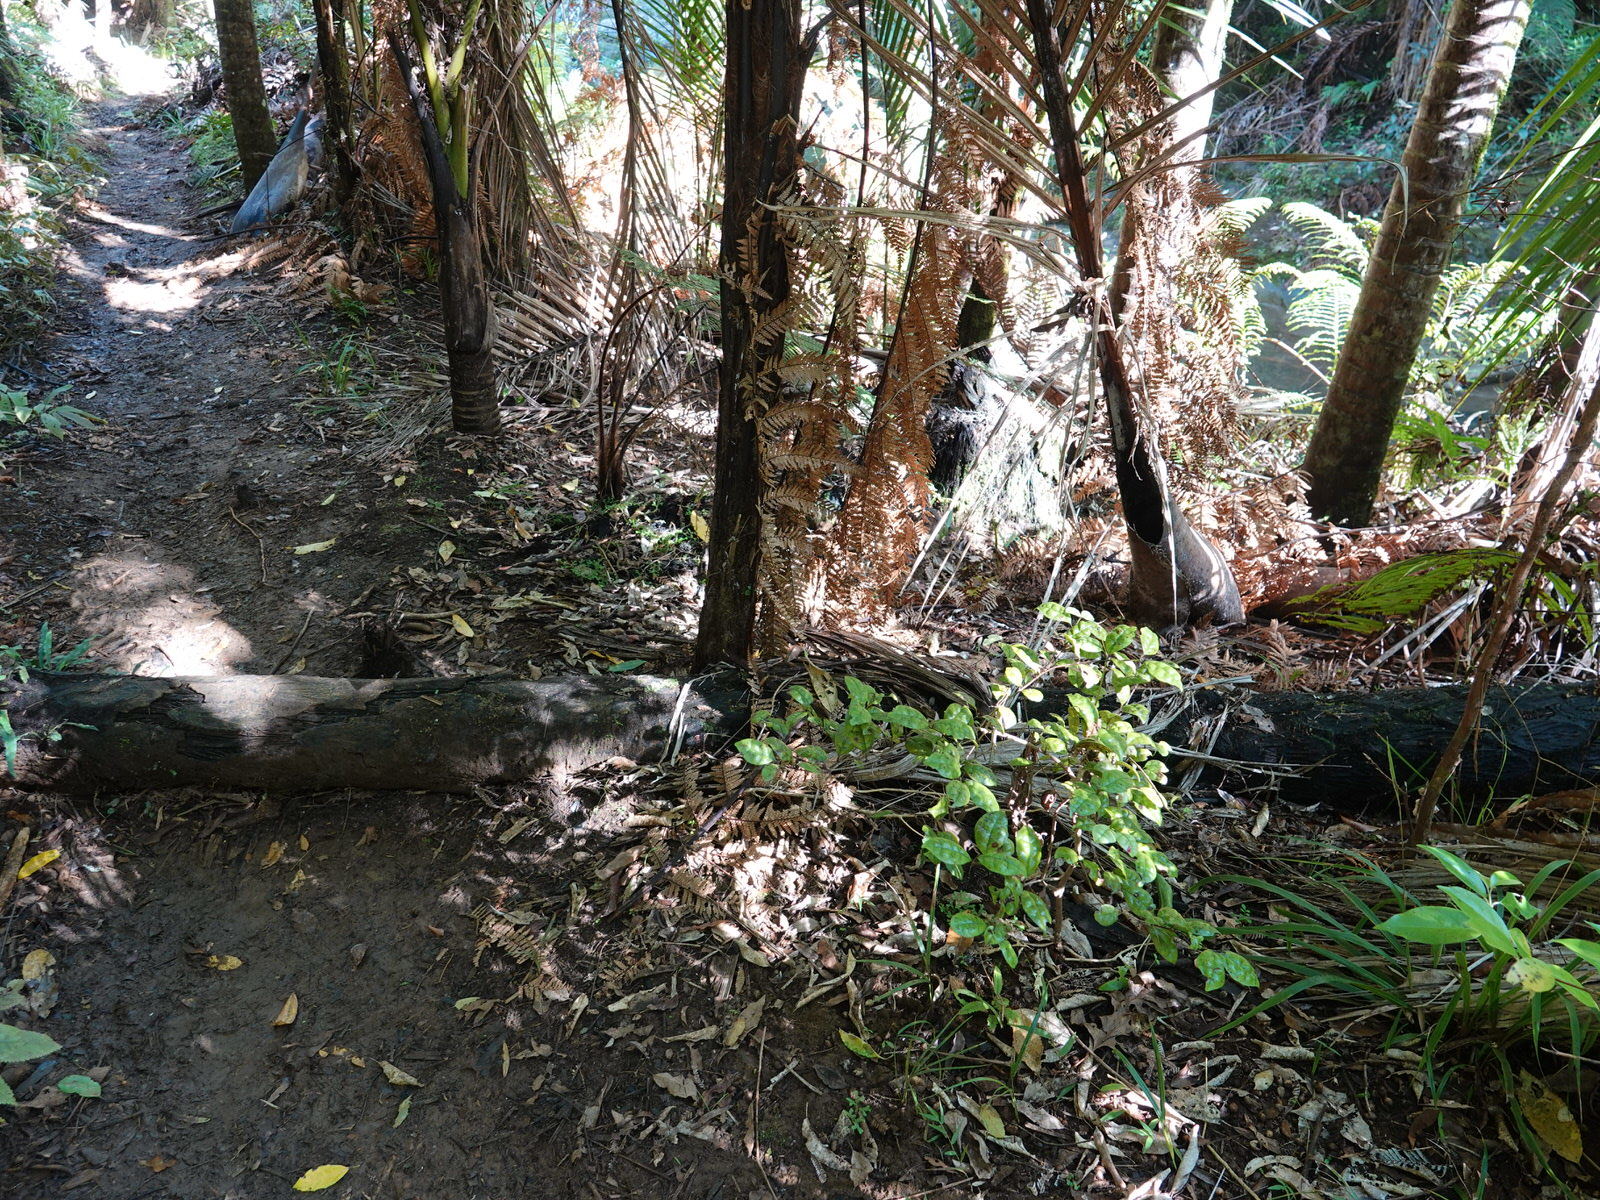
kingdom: Plantae
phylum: Tracheophyta
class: Magnoliopsida
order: Myrtales
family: Myrtaceae
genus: Lophomyrtus
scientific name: Lophomyrtus bullata
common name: Rama rama
